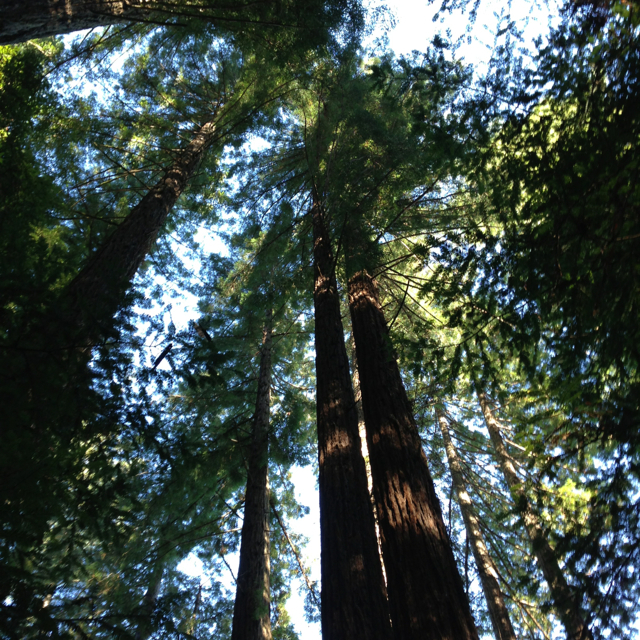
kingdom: Plantae
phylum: Tracheophyta
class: Pinopsida
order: Pinales
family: Cupressaceae
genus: Sequoia
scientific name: Sequoia sempervirens
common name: Coast redwood
